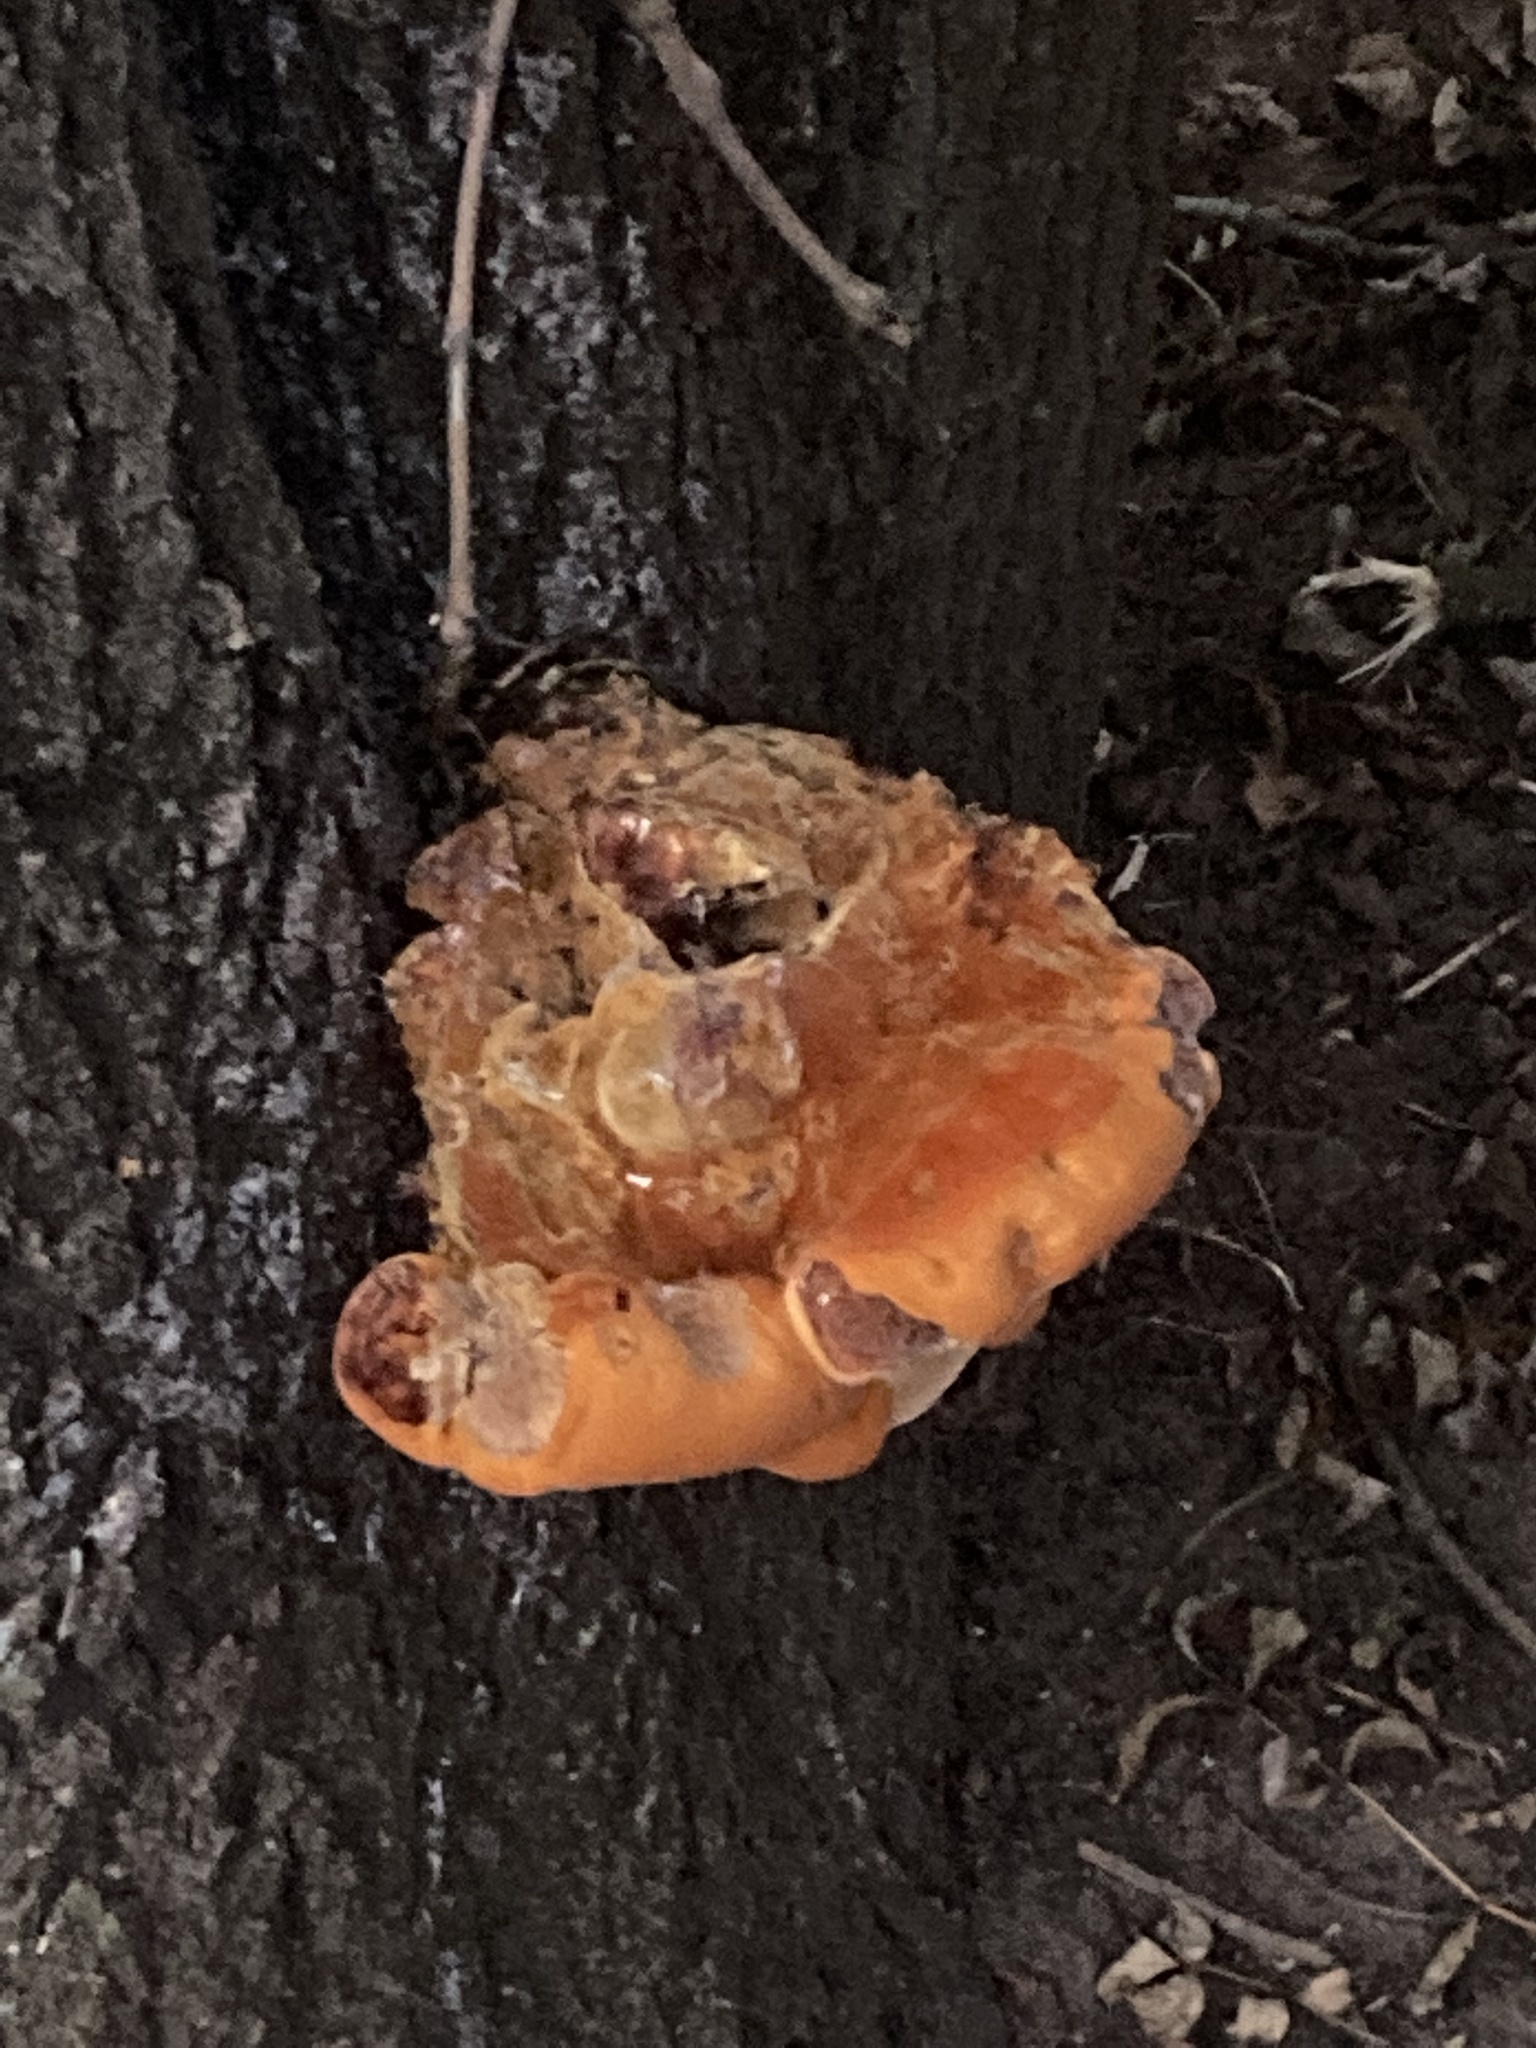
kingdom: Fungi
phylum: Basidiomycota
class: Agaricomycetes
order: Hymenochaetales
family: Hymenochaetaceae
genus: Inonotus
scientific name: Inonotus hispidus
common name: Shaggy bracket
